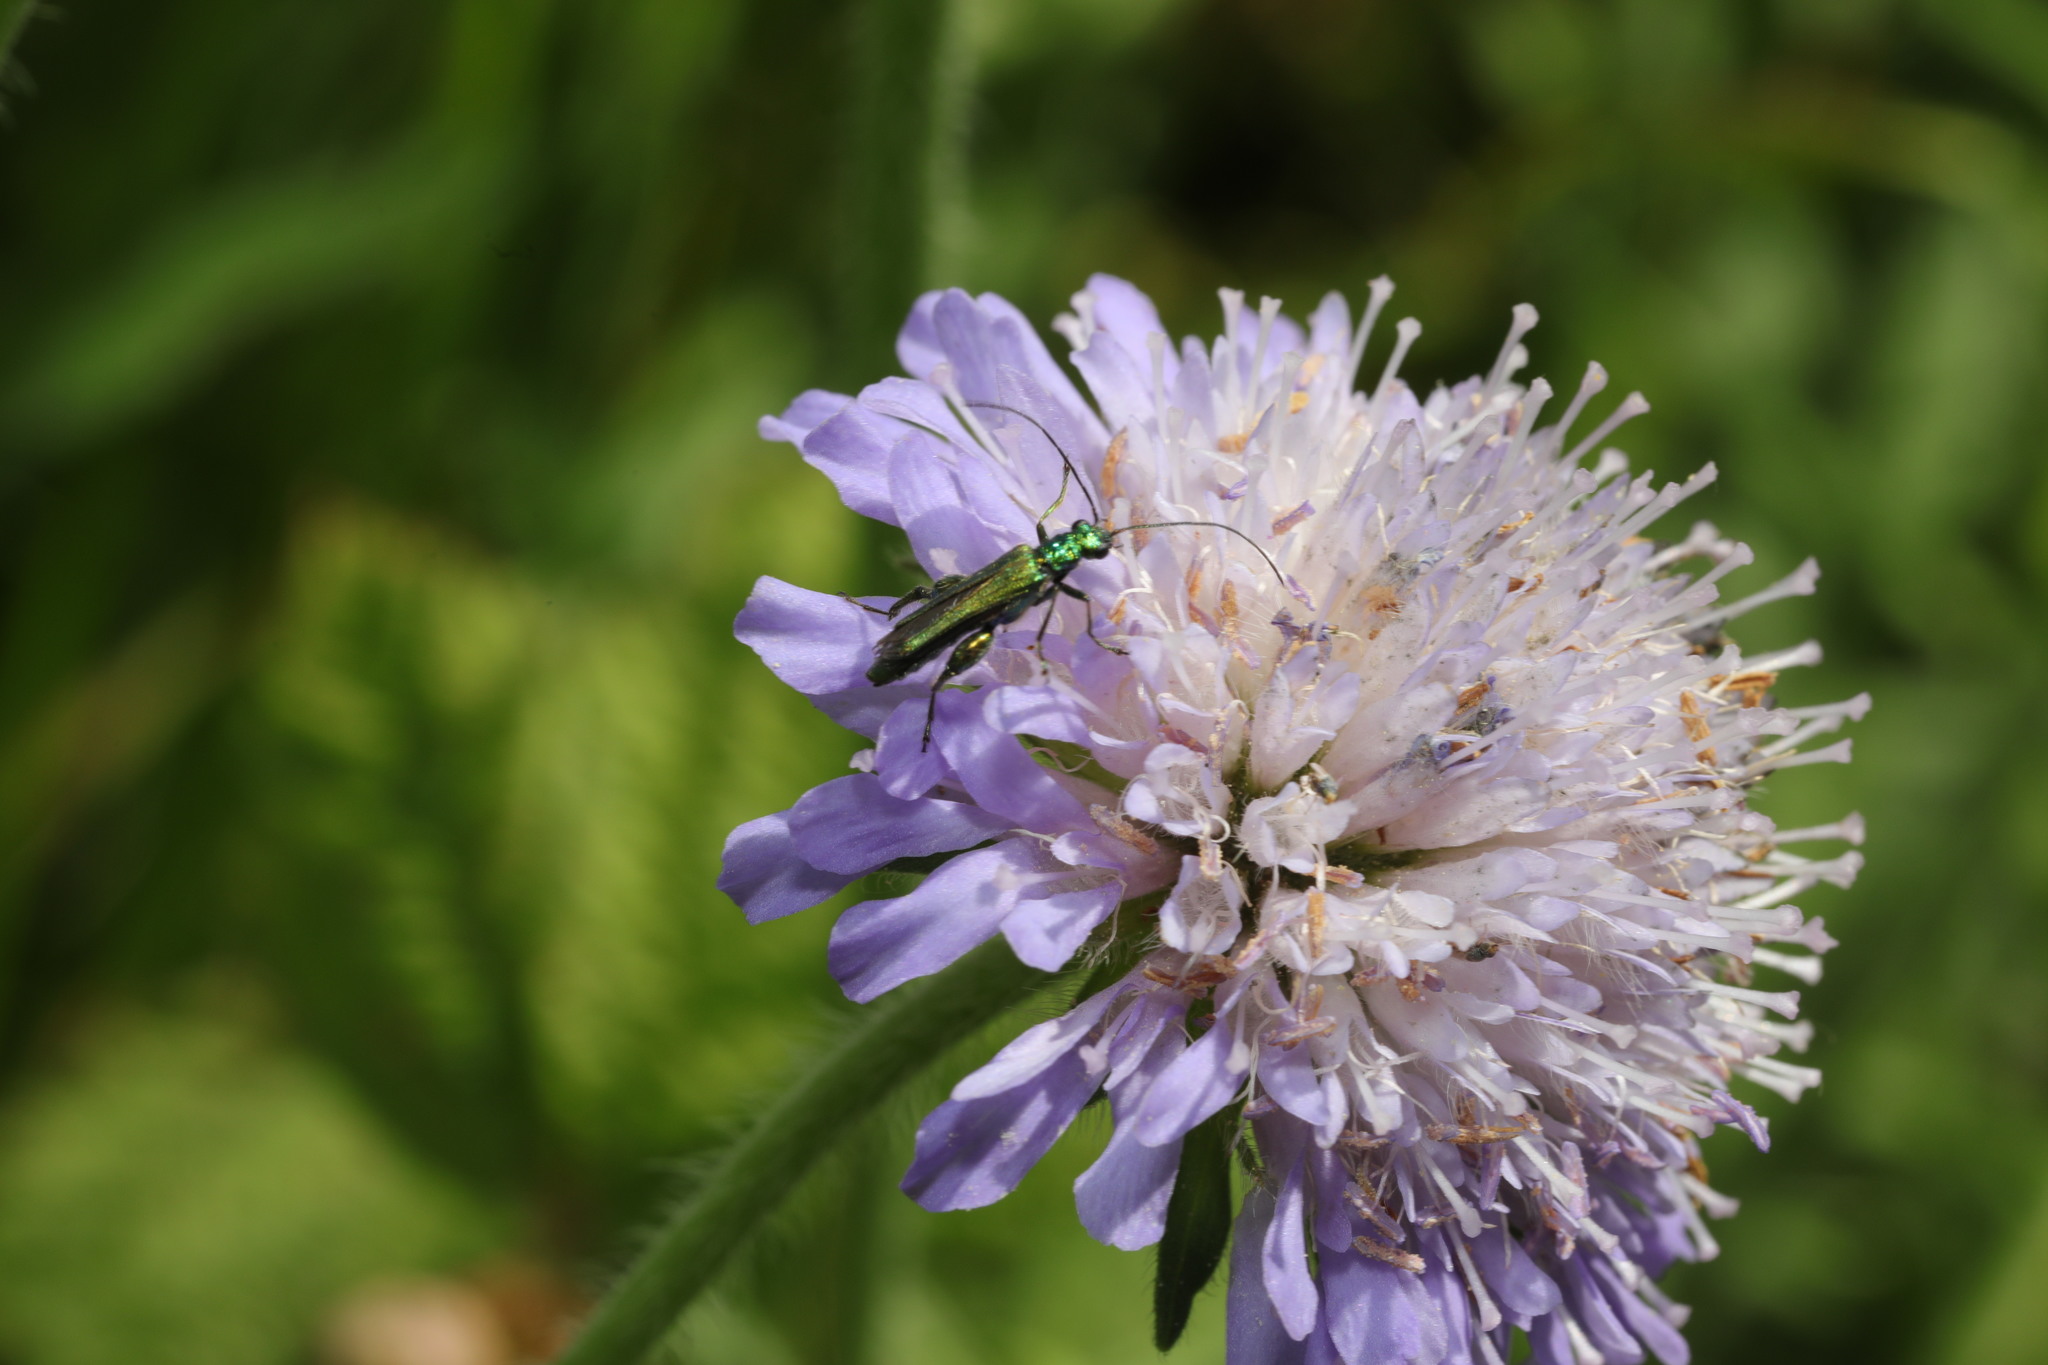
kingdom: Animalia
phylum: Arthropoda
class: Insecta
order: Coleoptera
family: Oedemeridae
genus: Oedemera
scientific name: Oedemera nobilis
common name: Swollen-thighed beetle
